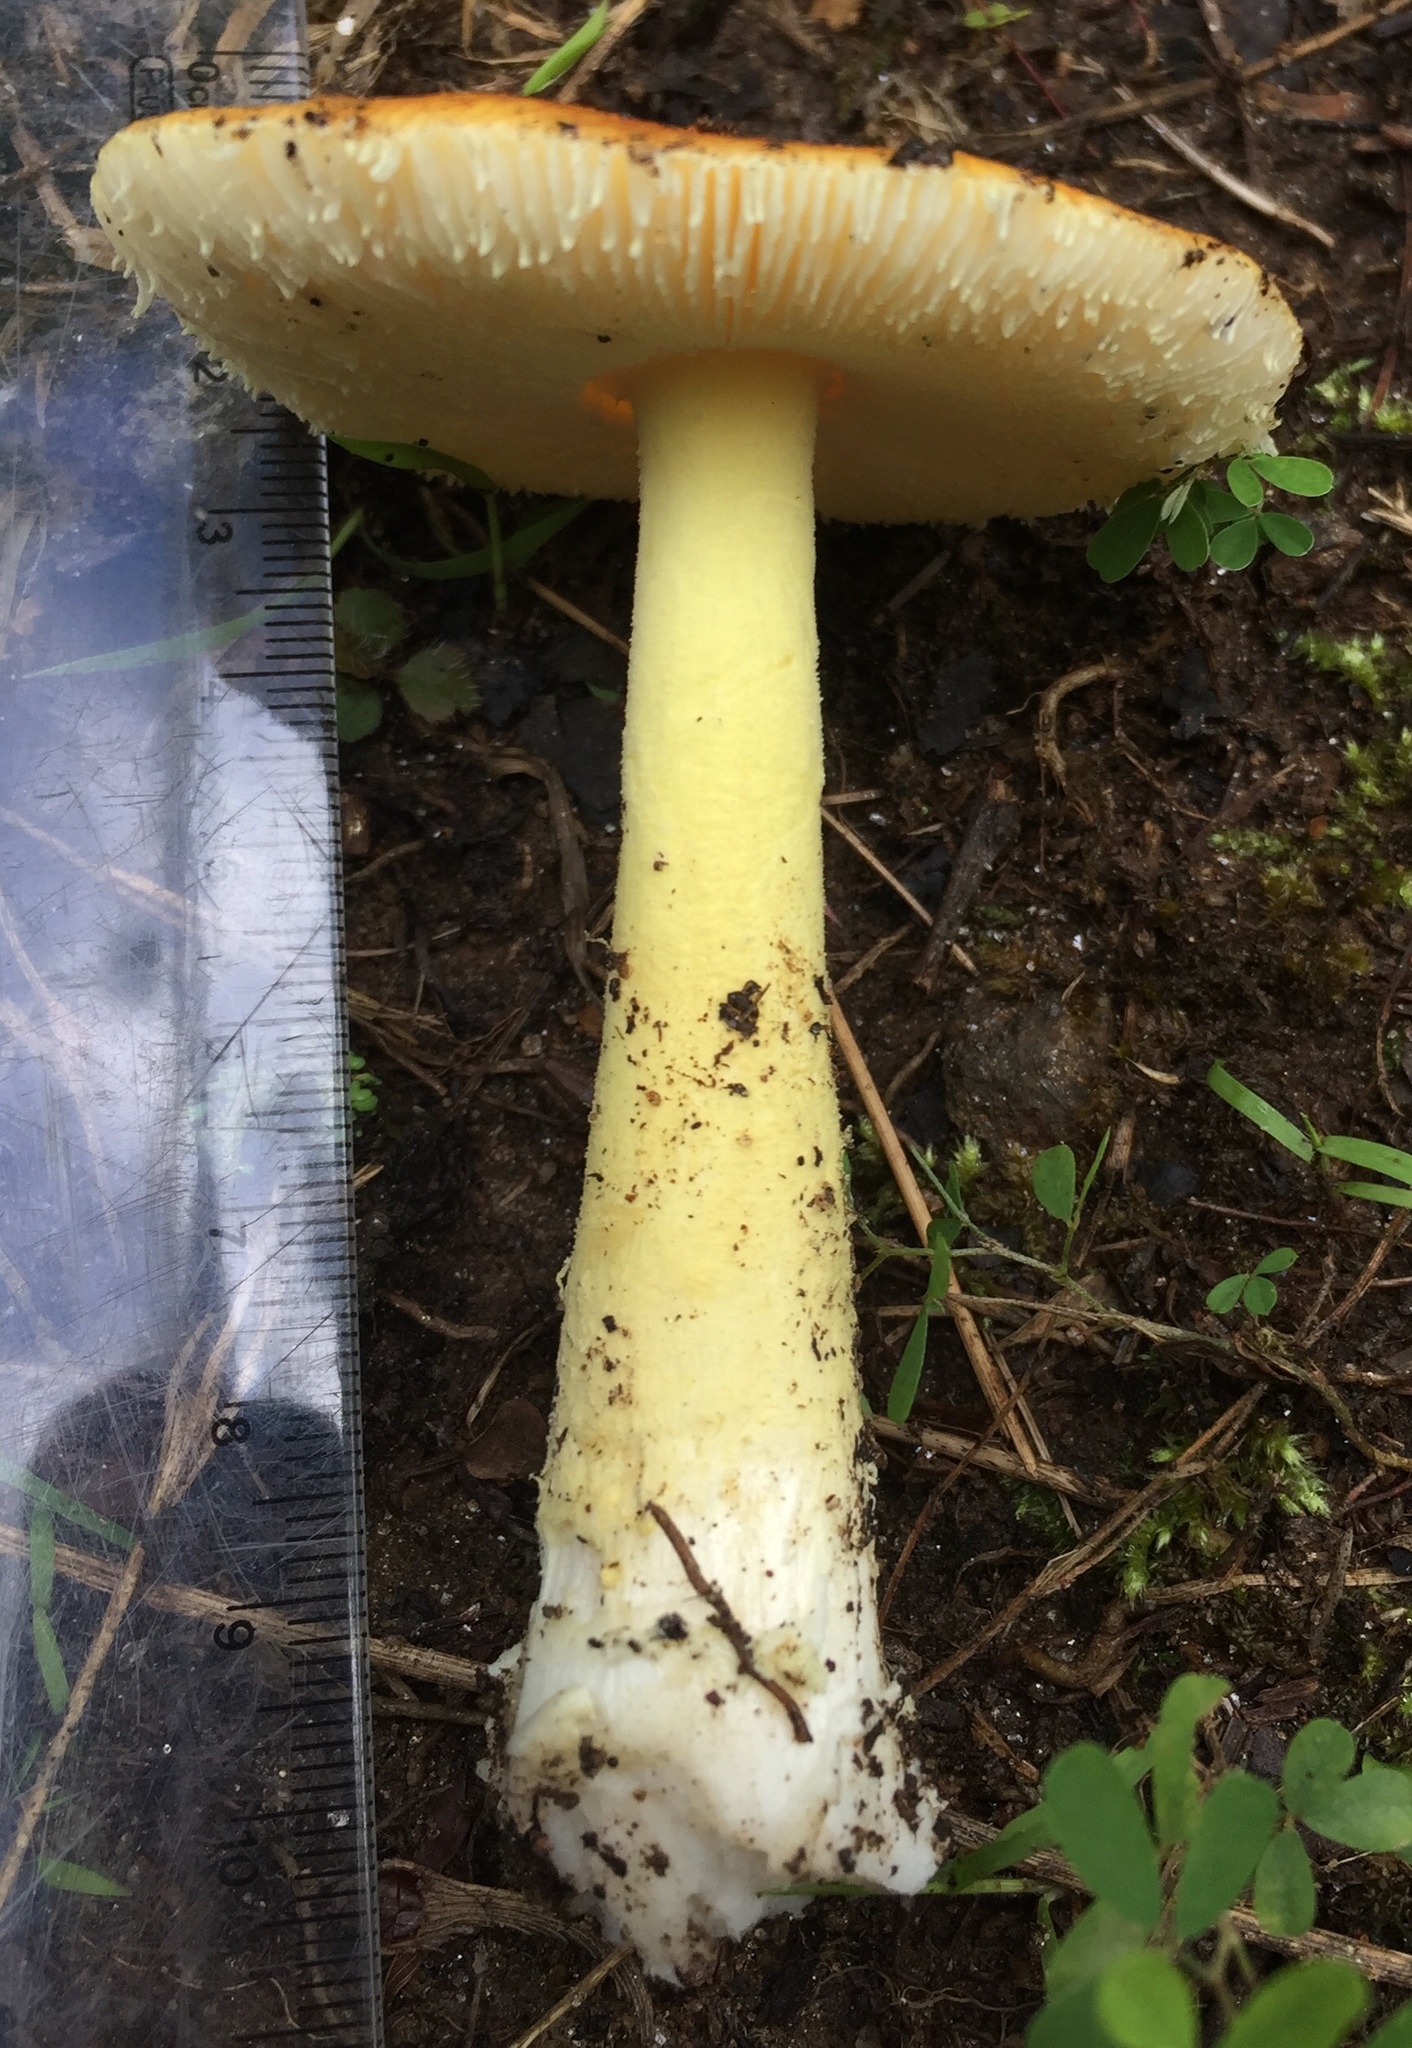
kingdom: Fungi
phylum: Basidiomycota
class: Agaricomycetes
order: Agaricales
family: Amanitaceae
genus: Amanita
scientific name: Amanita parcivolvata
